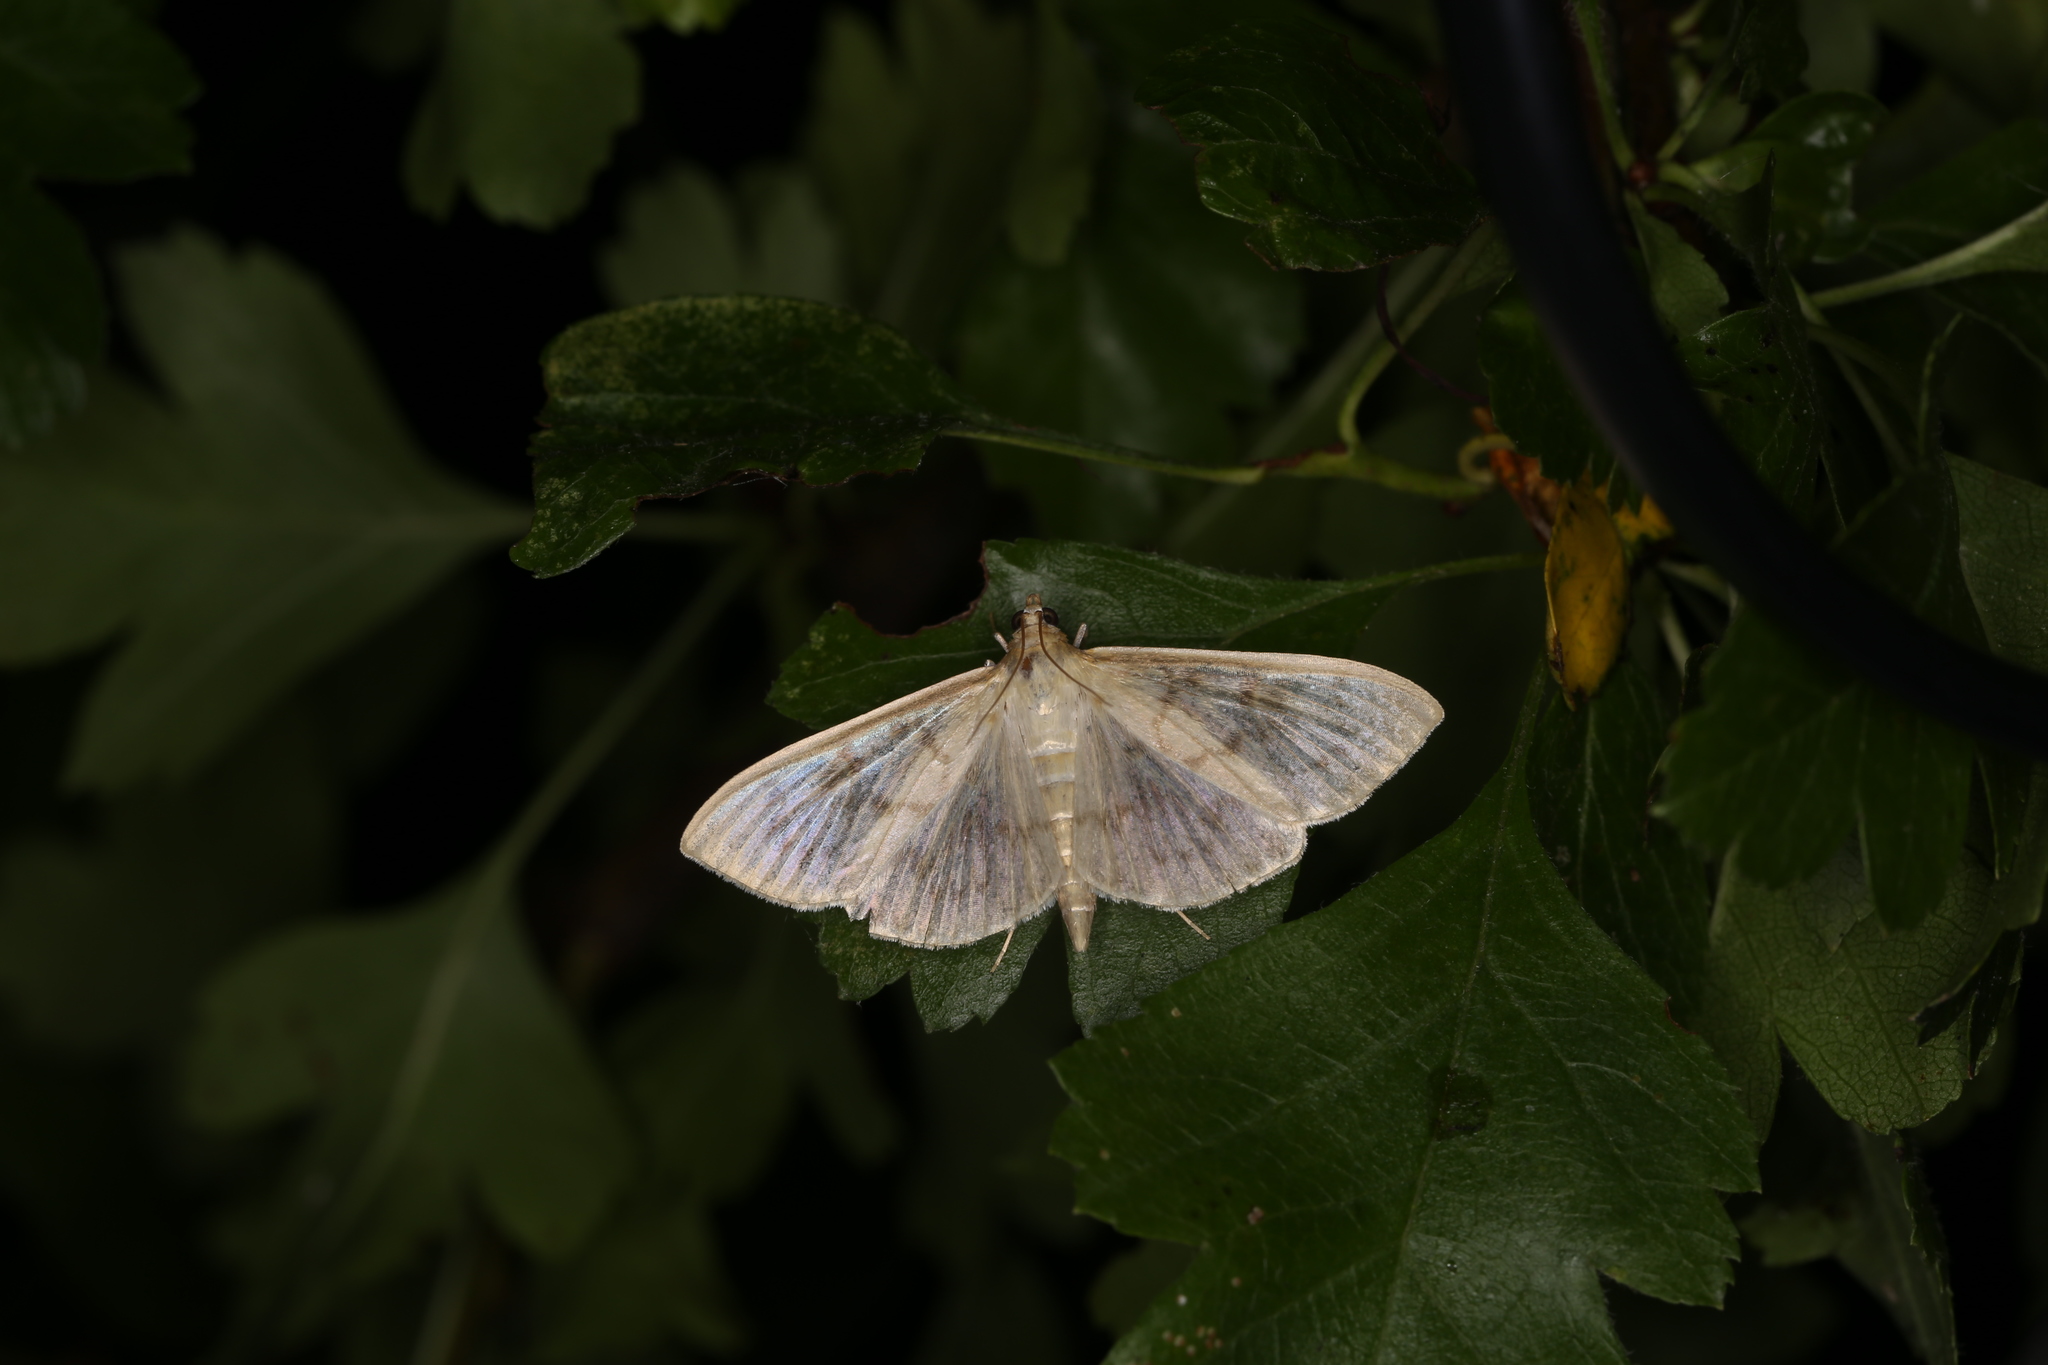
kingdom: Animalia
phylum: Arthropoda
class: Insecta
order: Lepidoptera
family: Crambidae
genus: Patania
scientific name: Patania ruralis
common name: Mother of pearl
